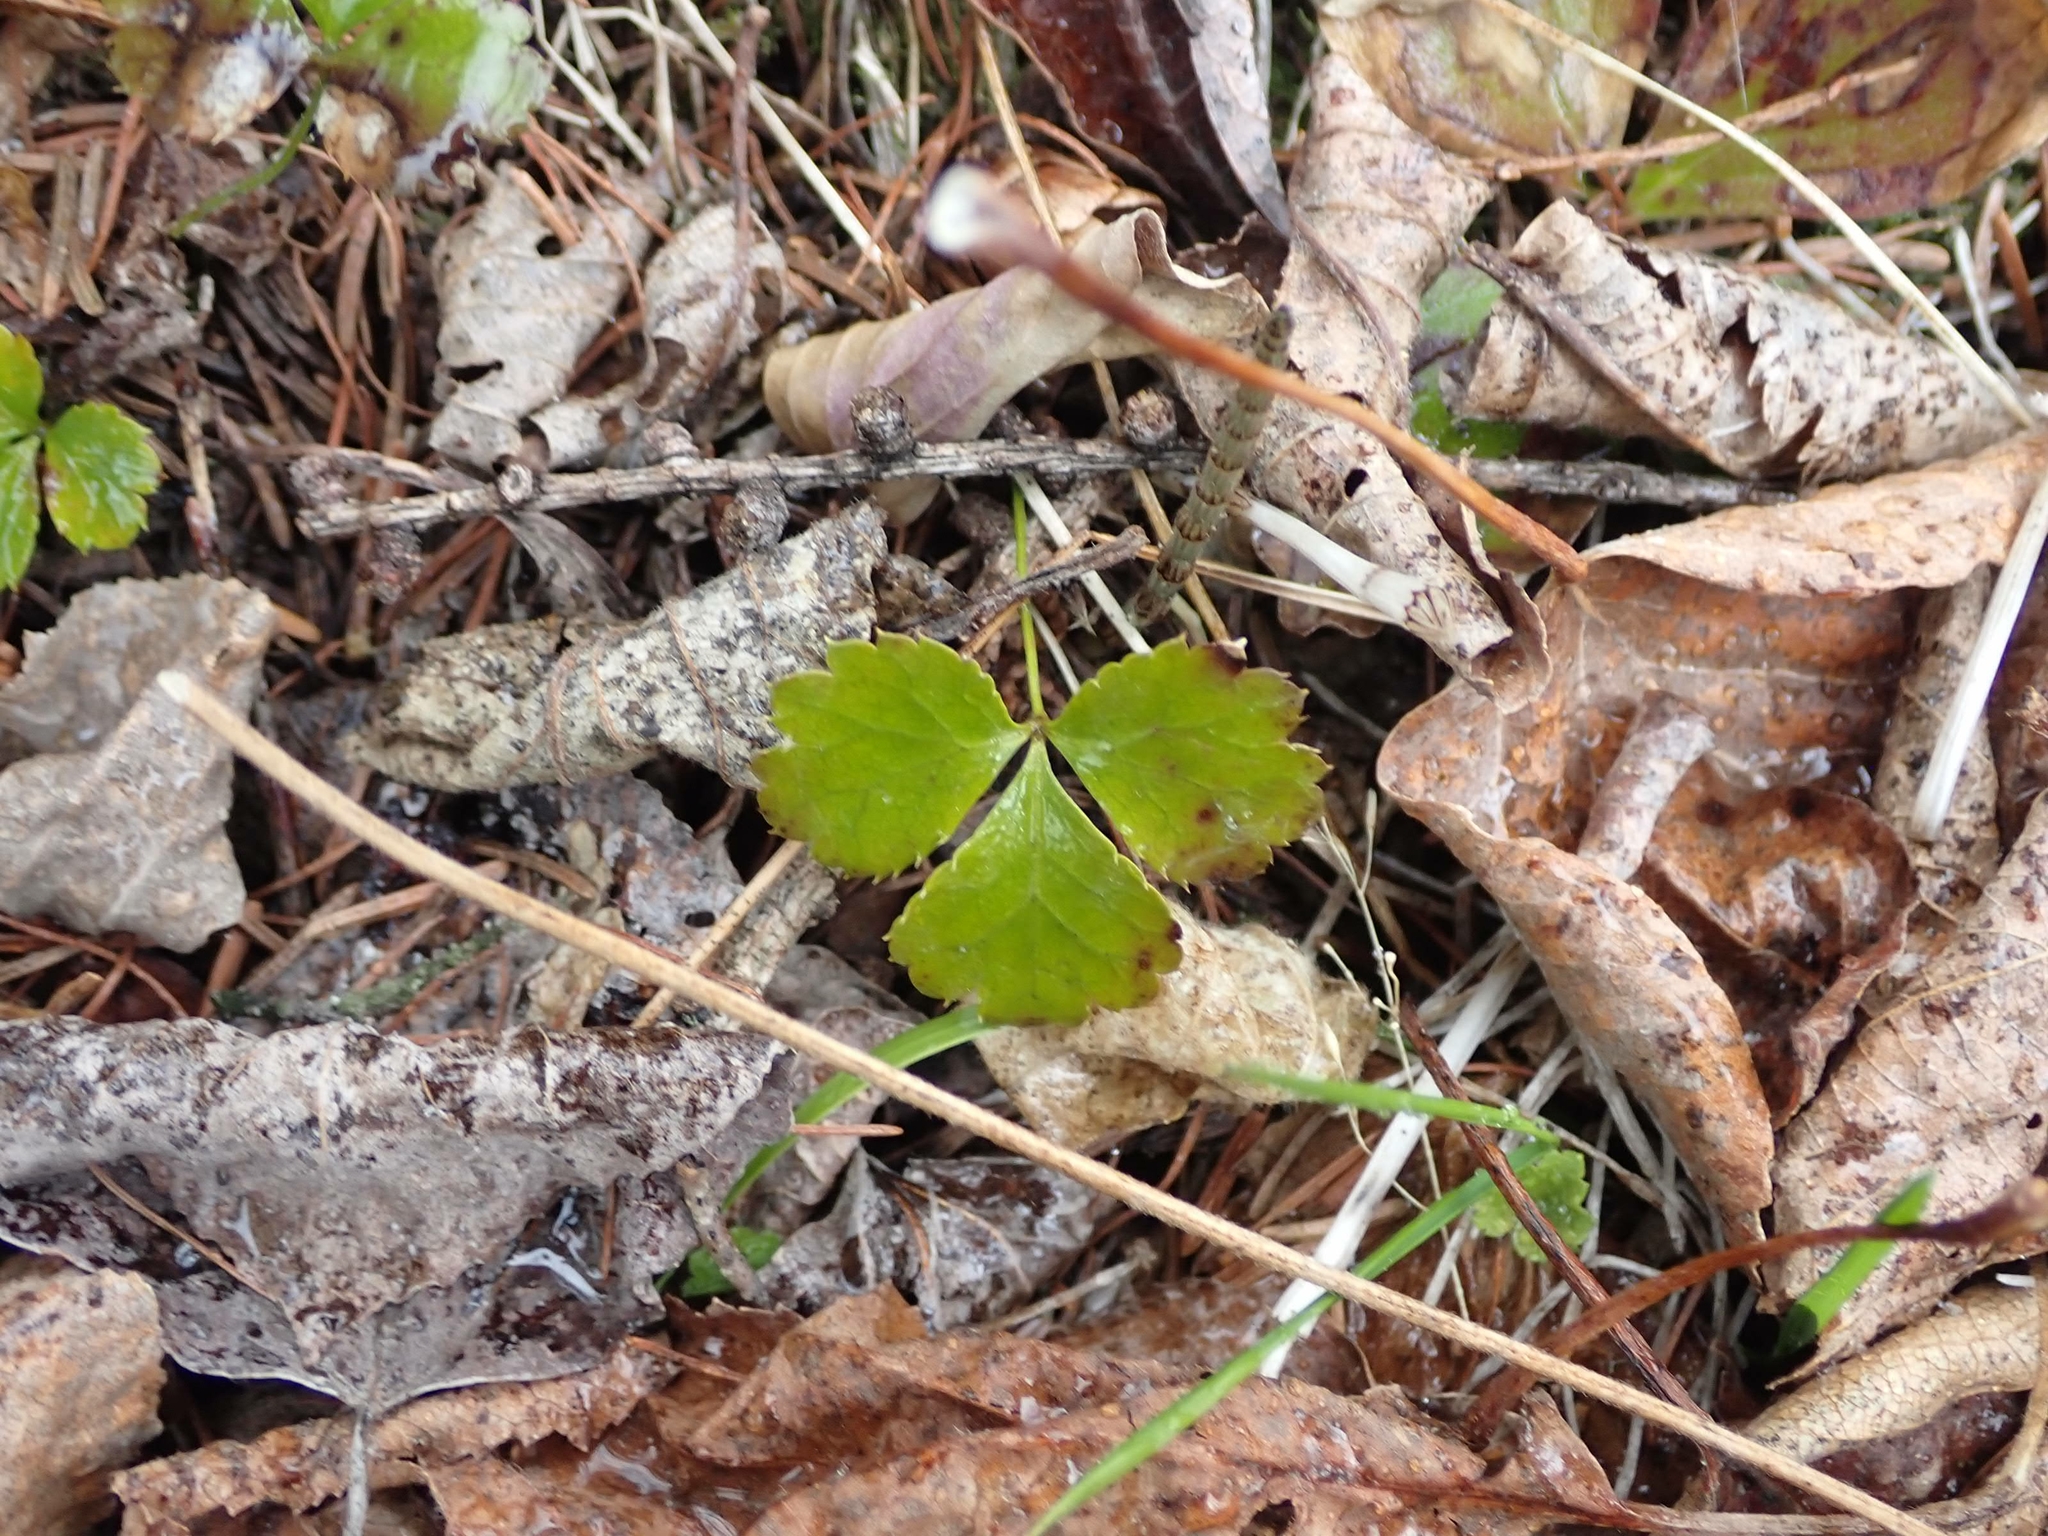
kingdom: Plantae
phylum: Tracheophyta
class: Magnoliopsida
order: Ranunculales
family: Ranunculaceae
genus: Coptis
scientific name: Coptis trifolia
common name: Canker-root
